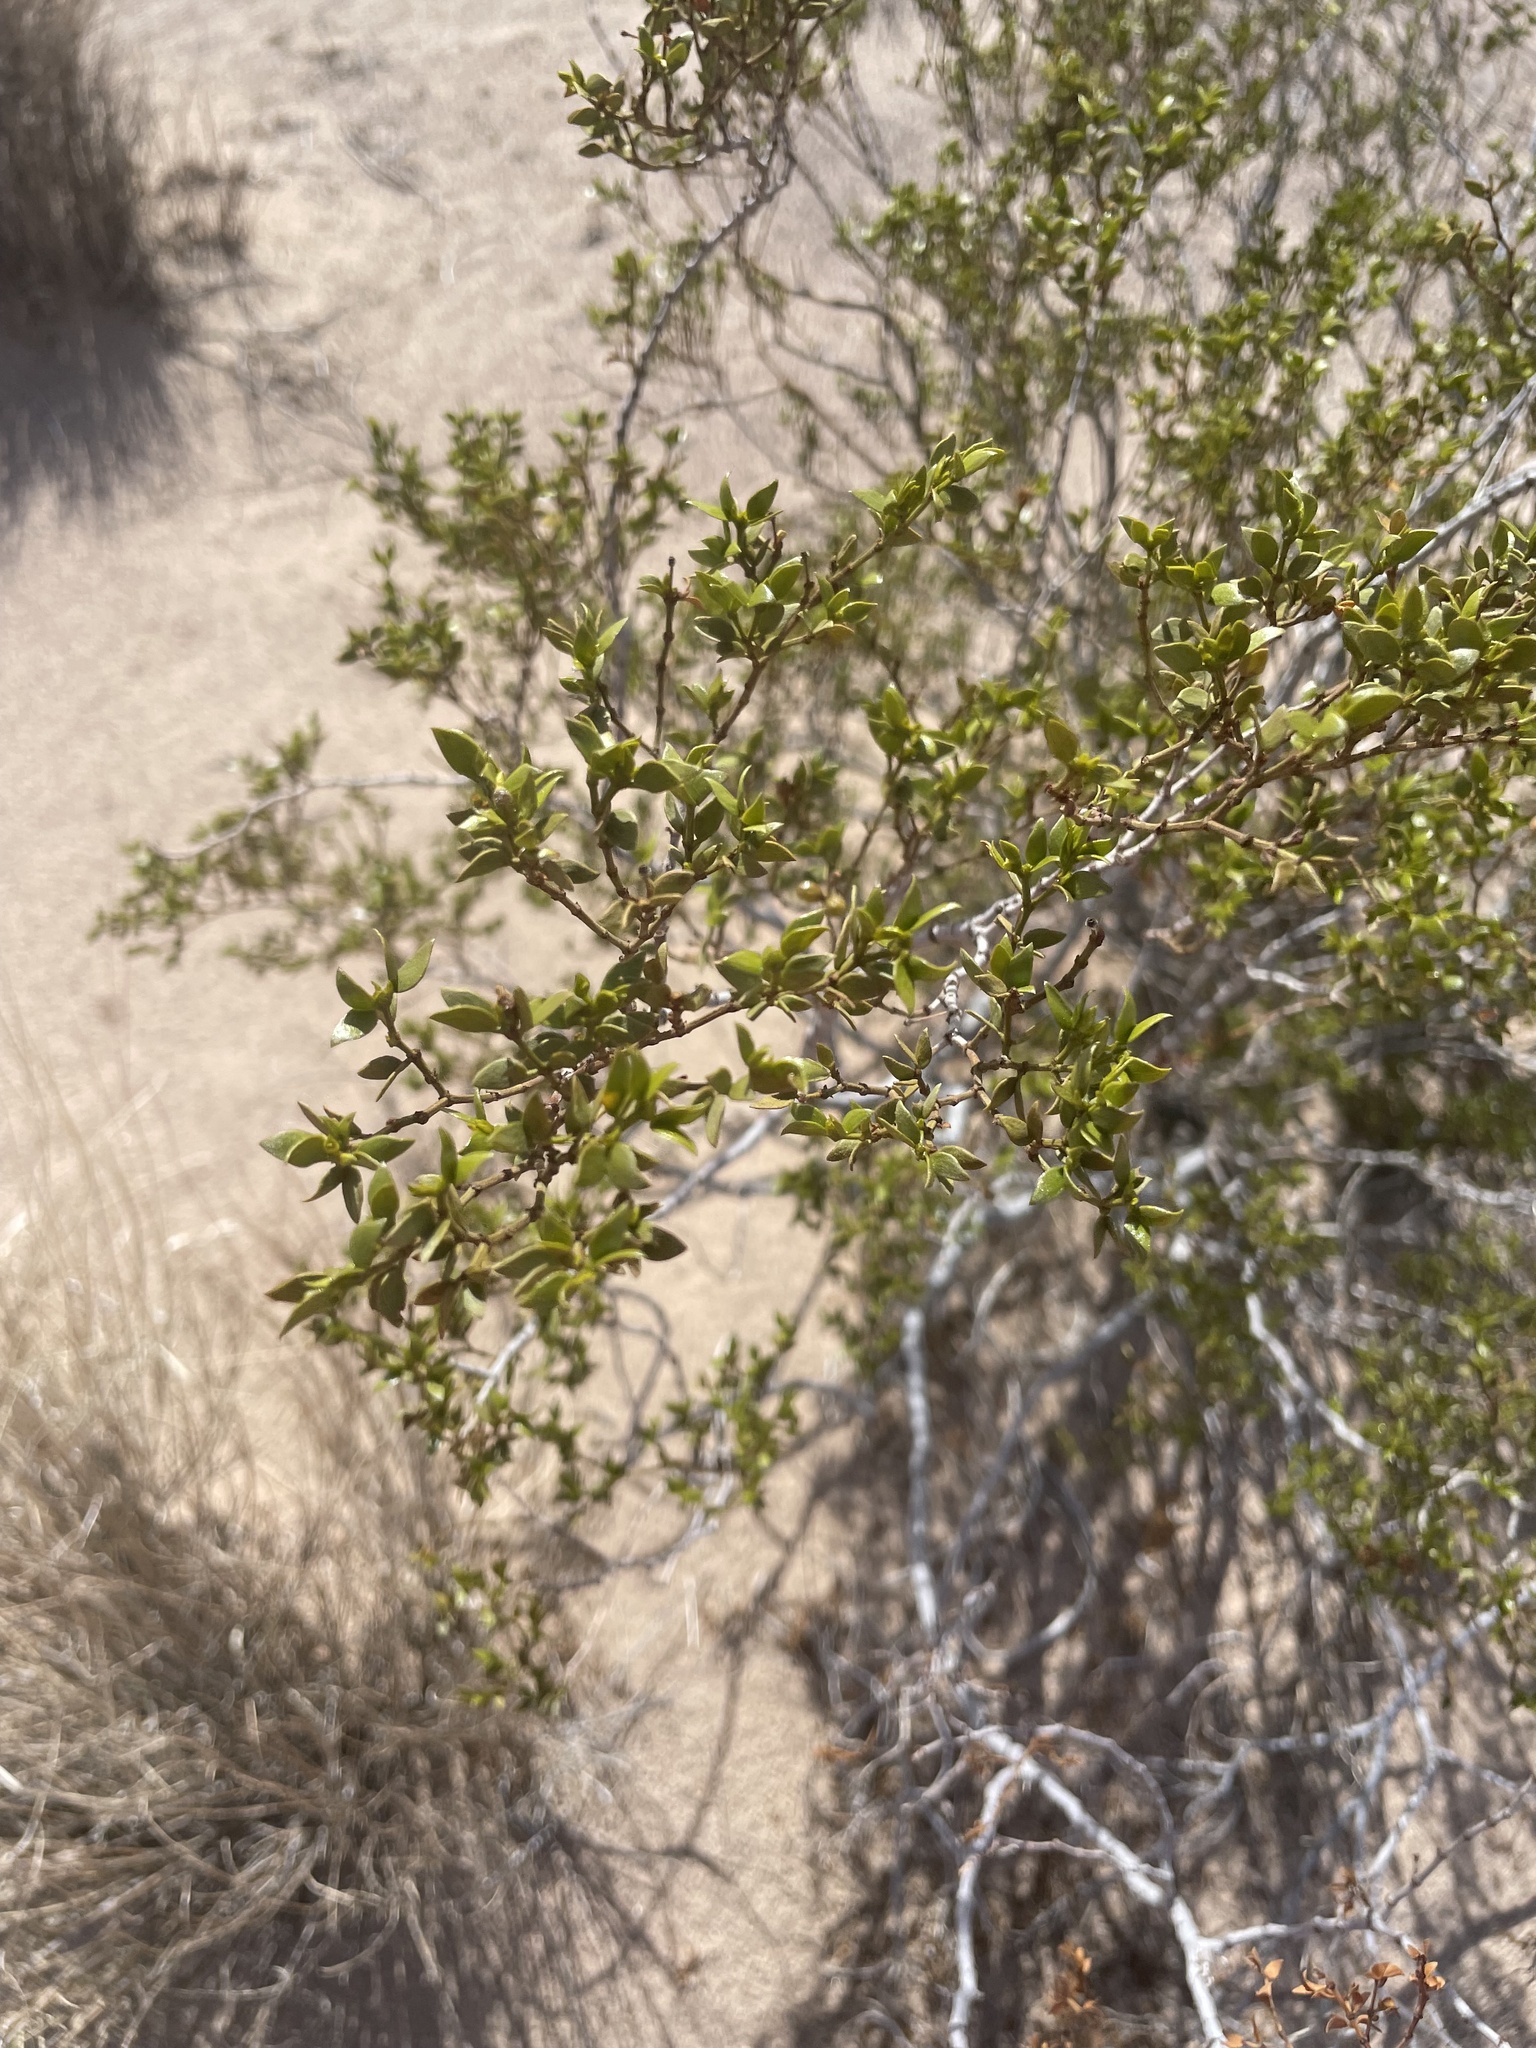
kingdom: Plantae
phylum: Tracheophyta
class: Magnoliopsida
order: Zygophyllales
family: Zygophyllaceae
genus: Larrea
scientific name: Larrea tridentata
